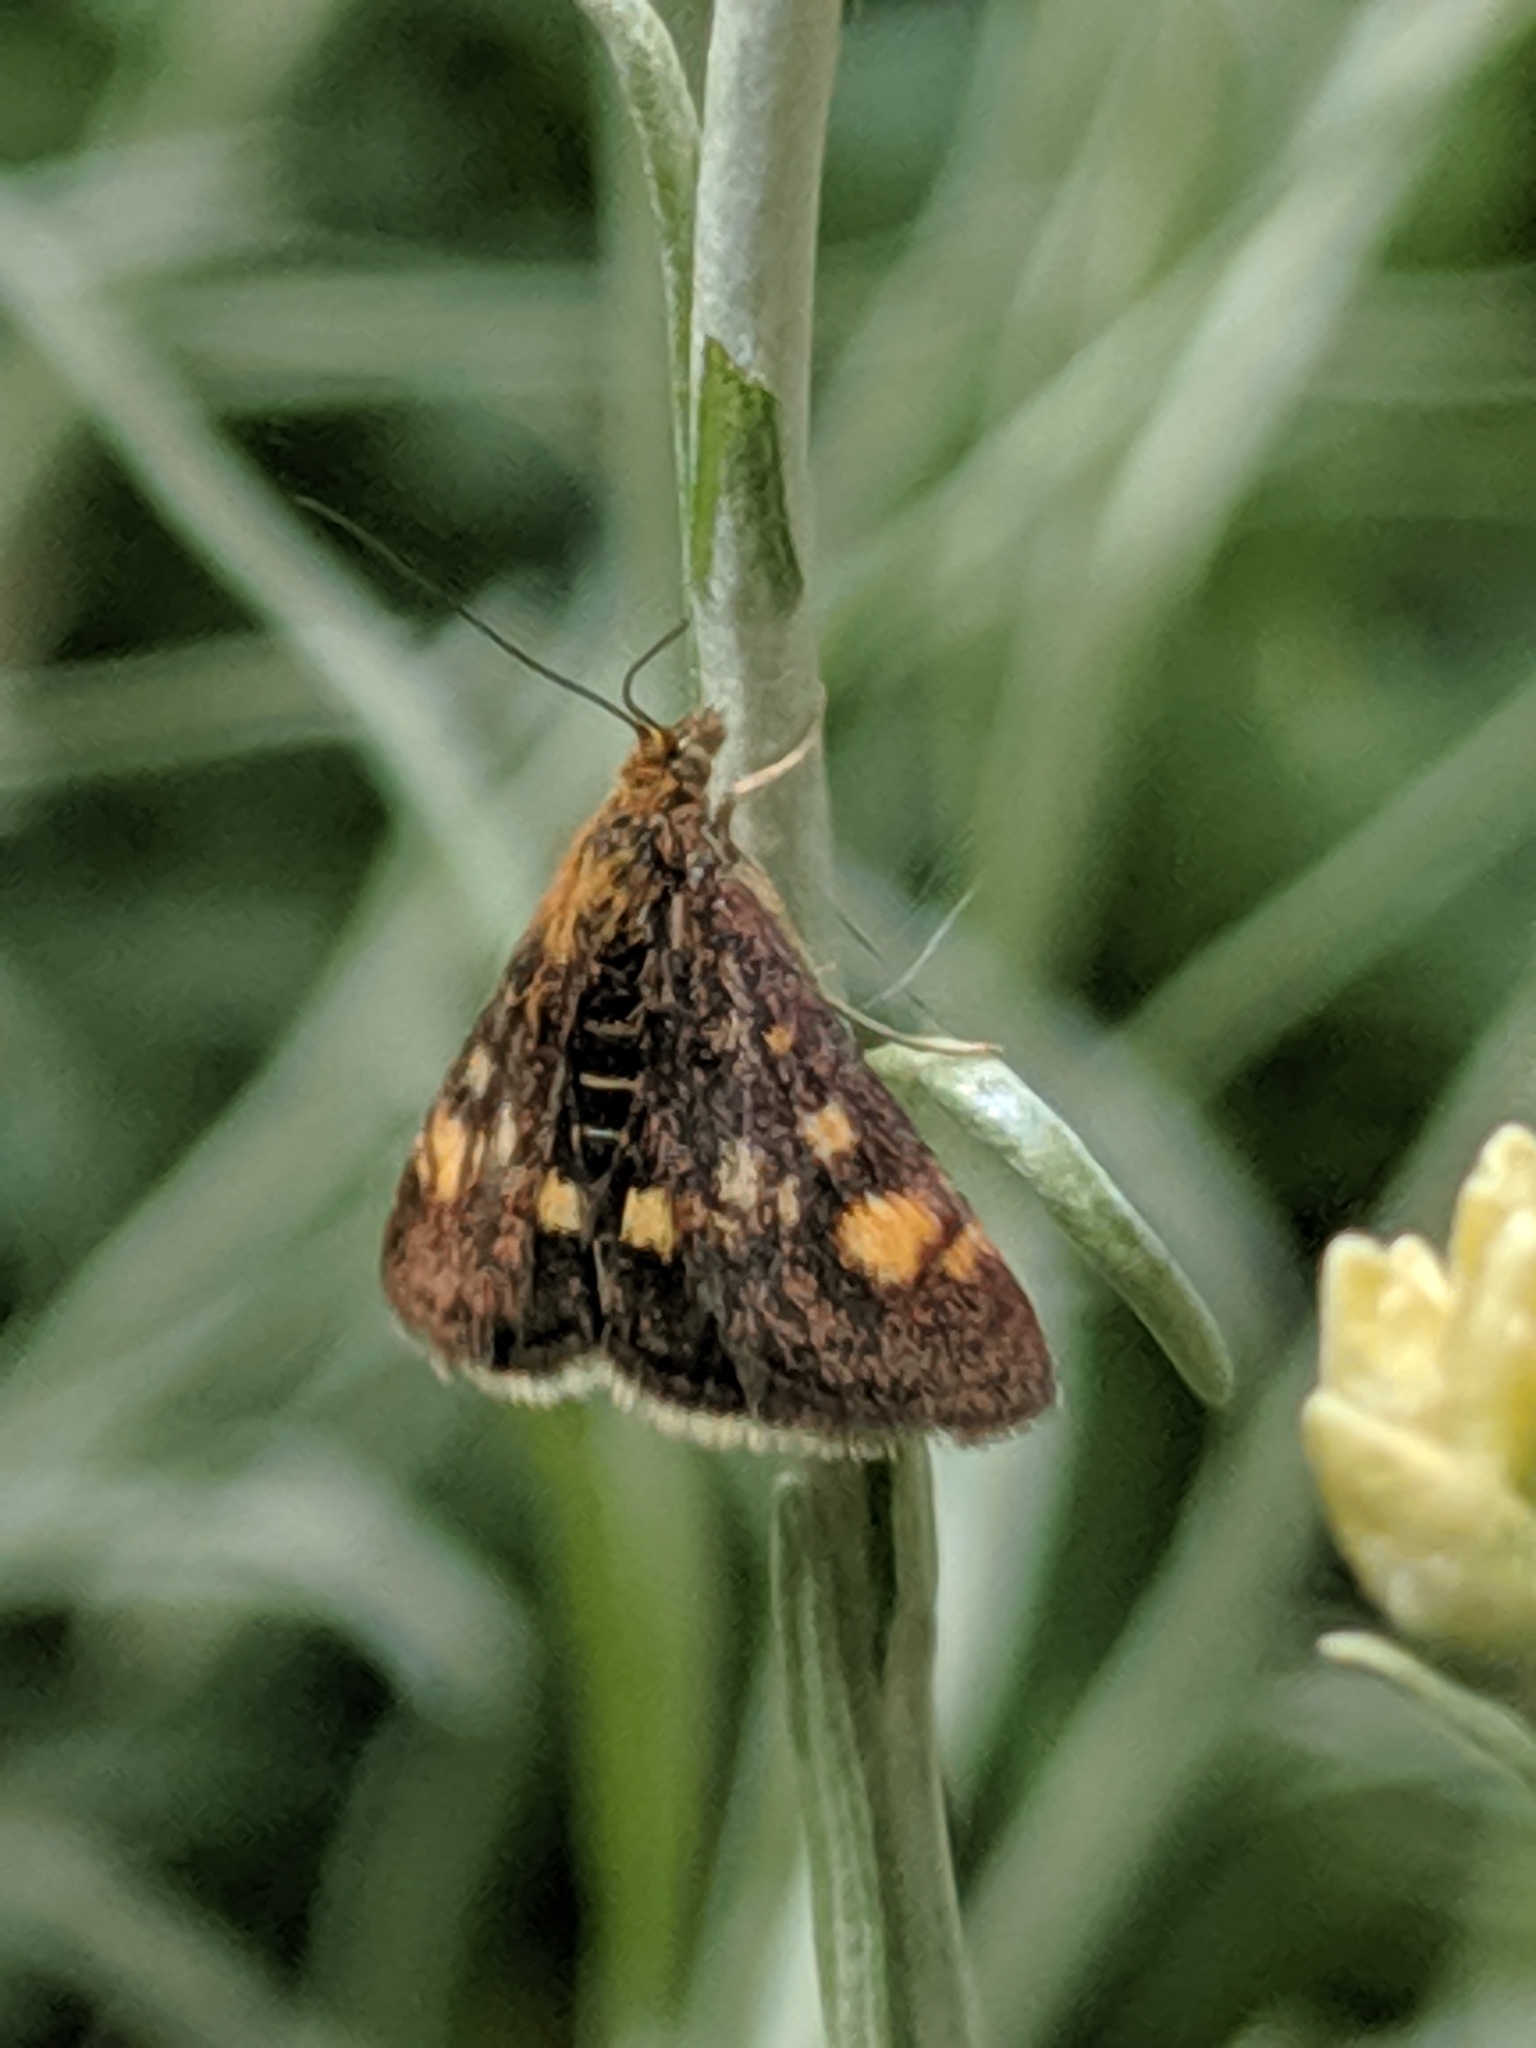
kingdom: Animalia
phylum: Arthropoda
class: Insecta
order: Lepidoptera
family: Crambidae
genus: Pyrausta
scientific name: Pyrausta aurata
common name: Small purple & gold
